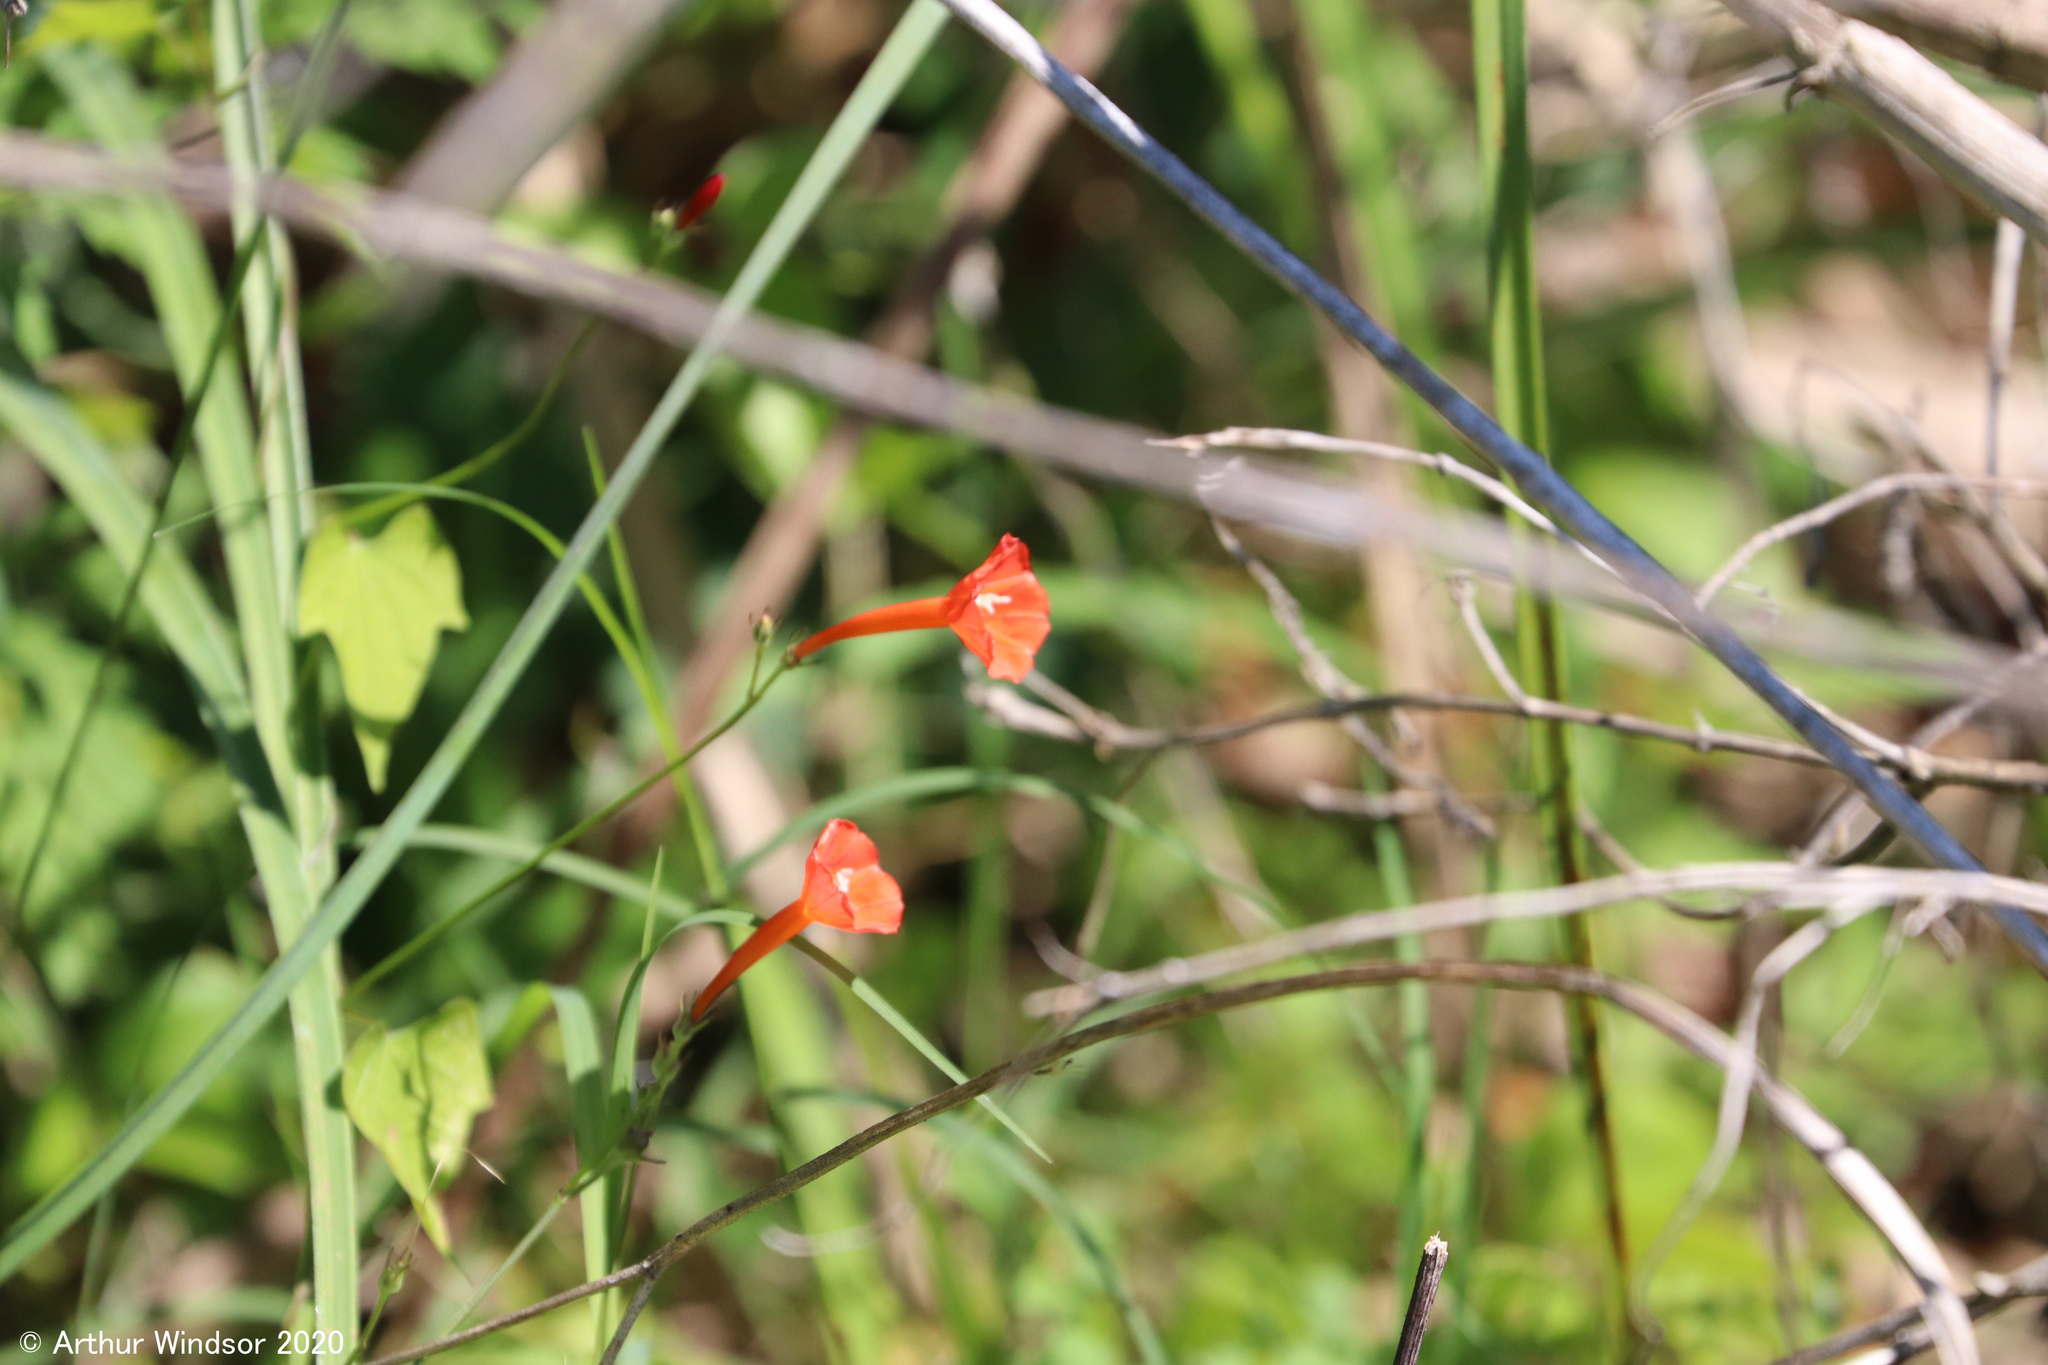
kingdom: Plantae
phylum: Tracheophyta
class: Magnoliopsida
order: Solanales
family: Convolvulaceae
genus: Ipomoea
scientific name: Ipomoea hederifolia
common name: Ivy-leaf morning-glory
